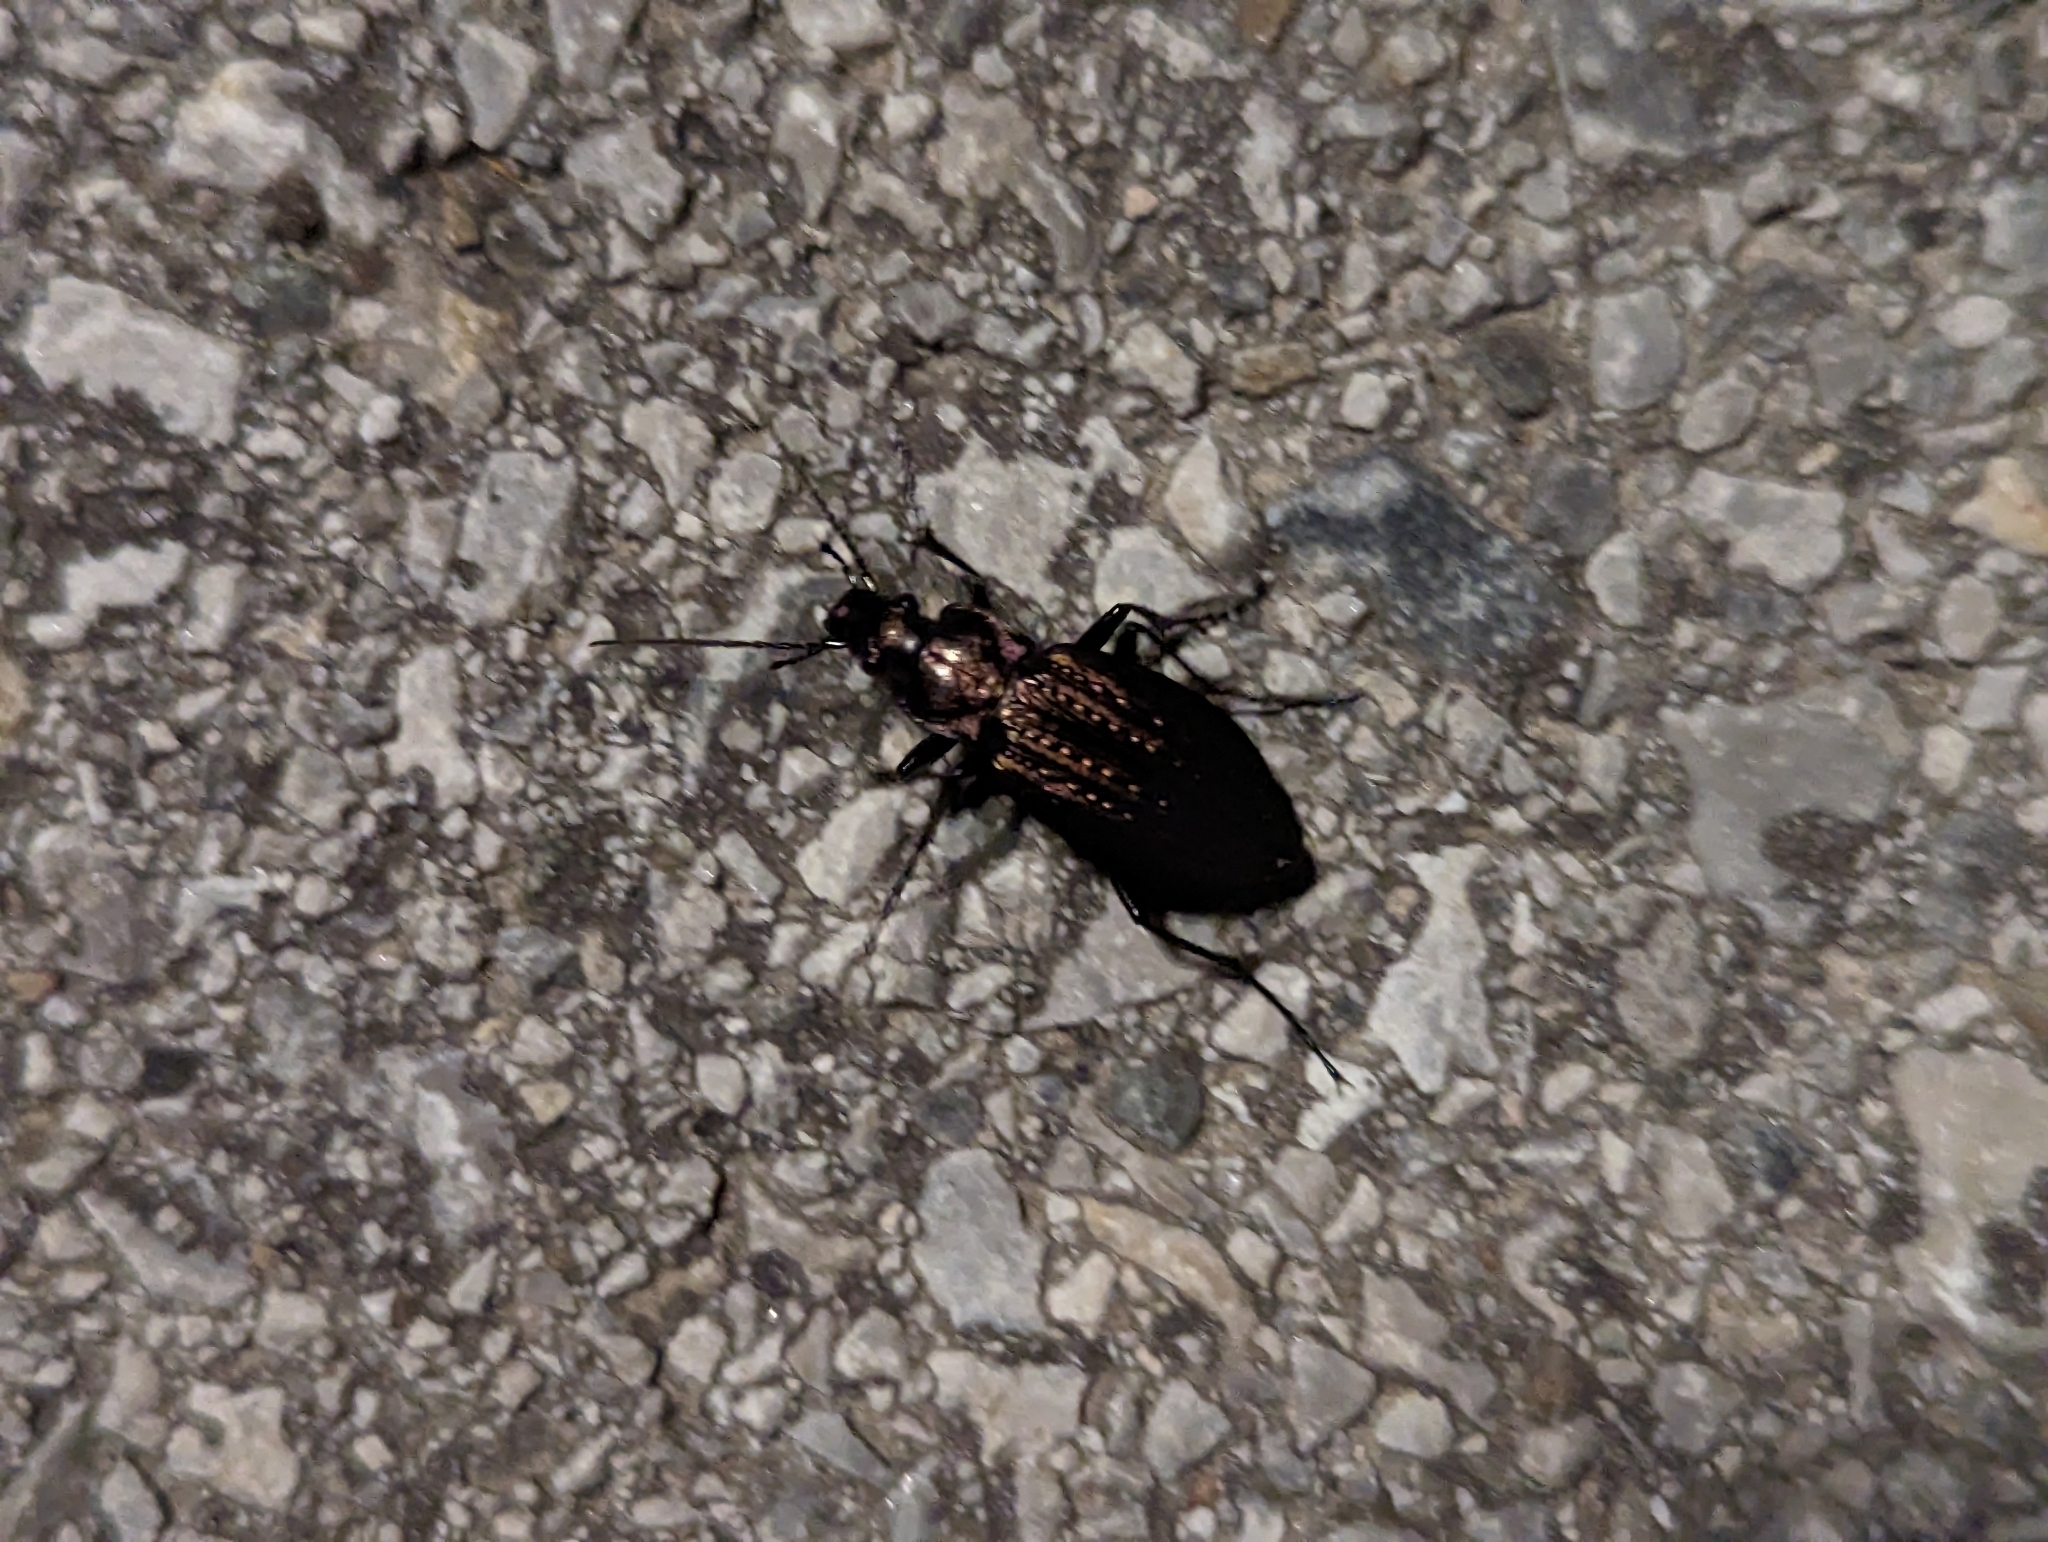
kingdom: Animalia
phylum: Arthropoda
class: Insecta
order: Coleoptera
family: Carabidae
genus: Carabus
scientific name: Carabus granulatus
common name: Granulate ground beetle
